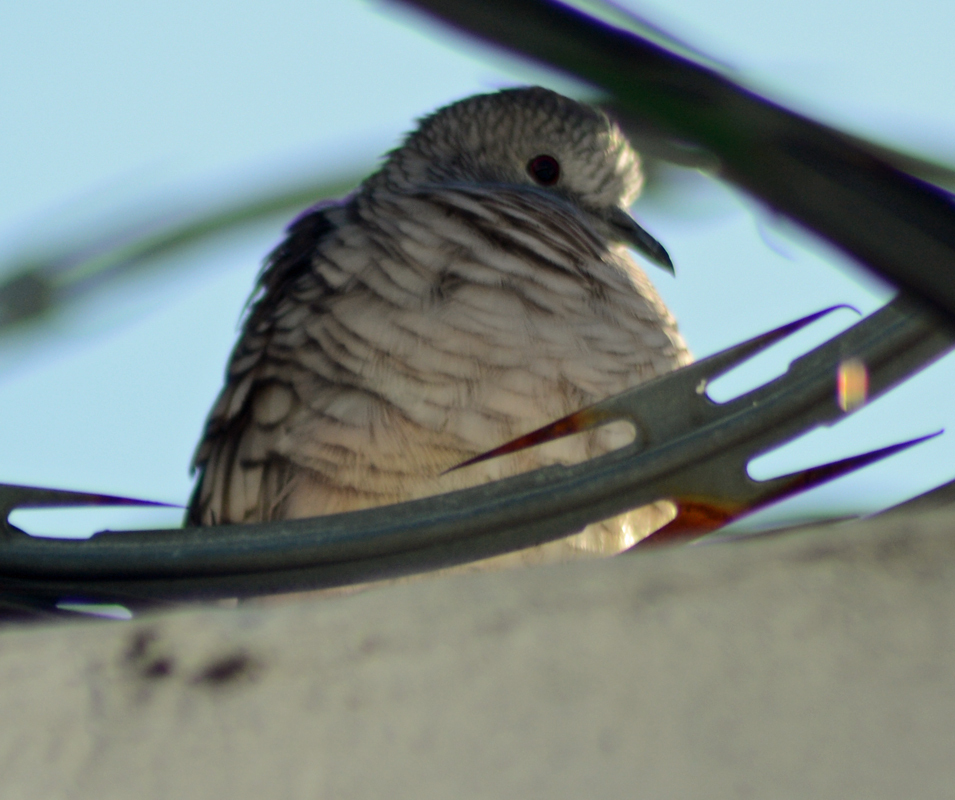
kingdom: Animalia
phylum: Chordata
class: Aves
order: Columbiformes
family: Columbidae
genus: Columbina
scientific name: Columbina inca
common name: Inca dove
